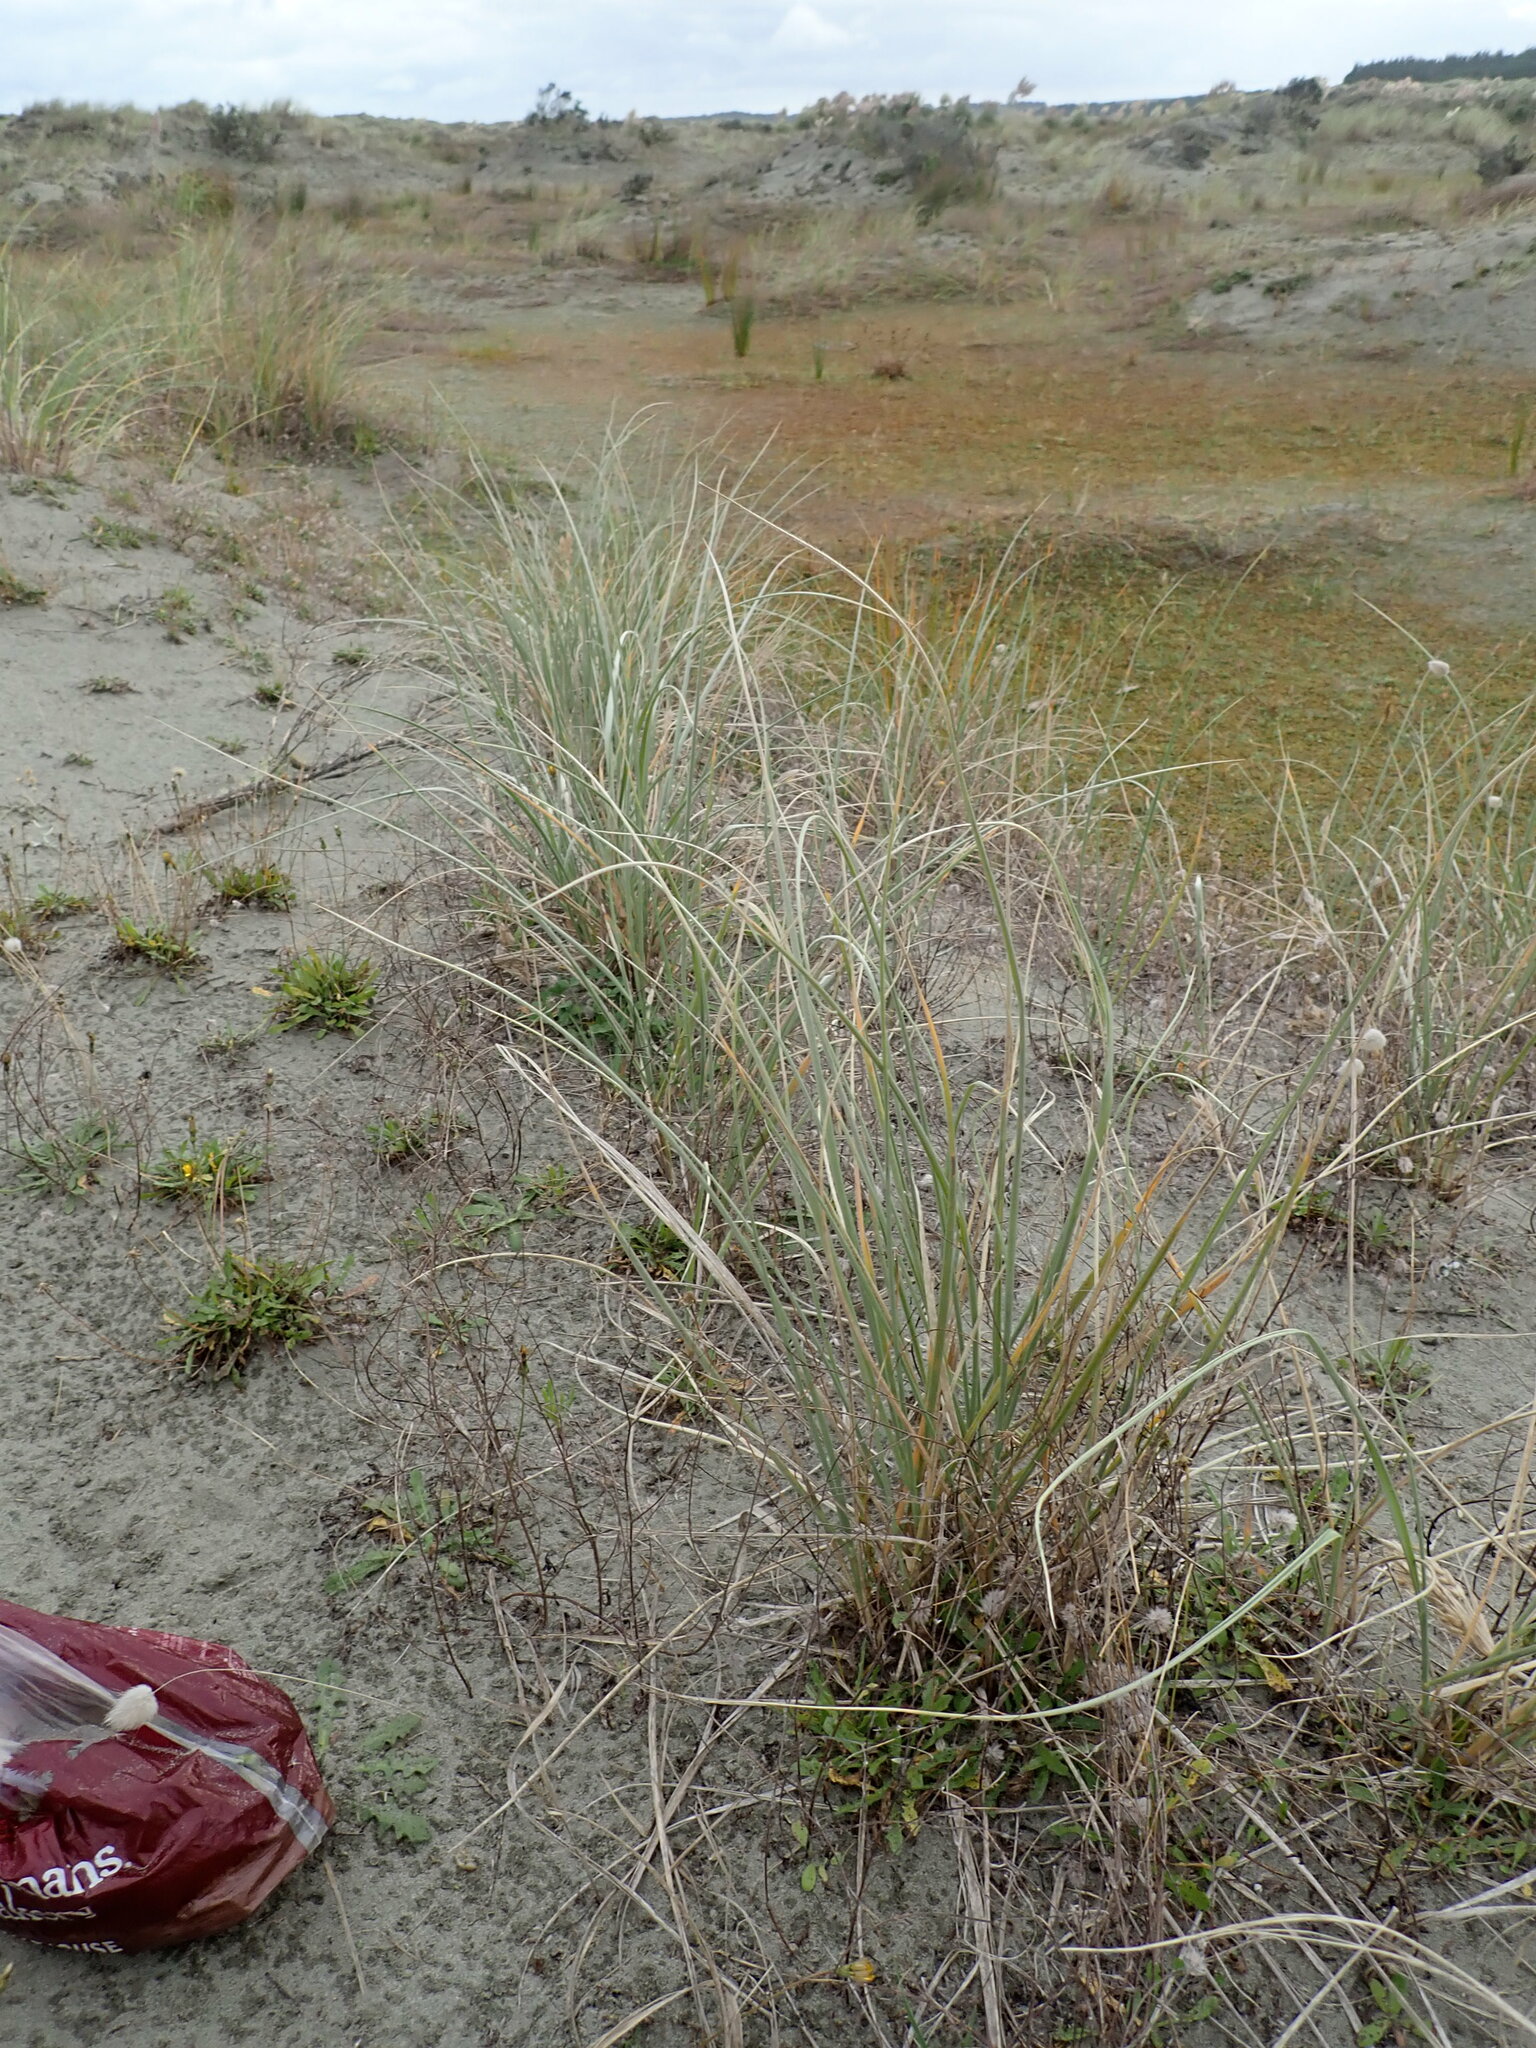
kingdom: Plantae
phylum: Tracheophyta
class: Liliopsida
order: Poales
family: Poaceae
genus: Spinifex
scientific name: Spinifex sericeus
